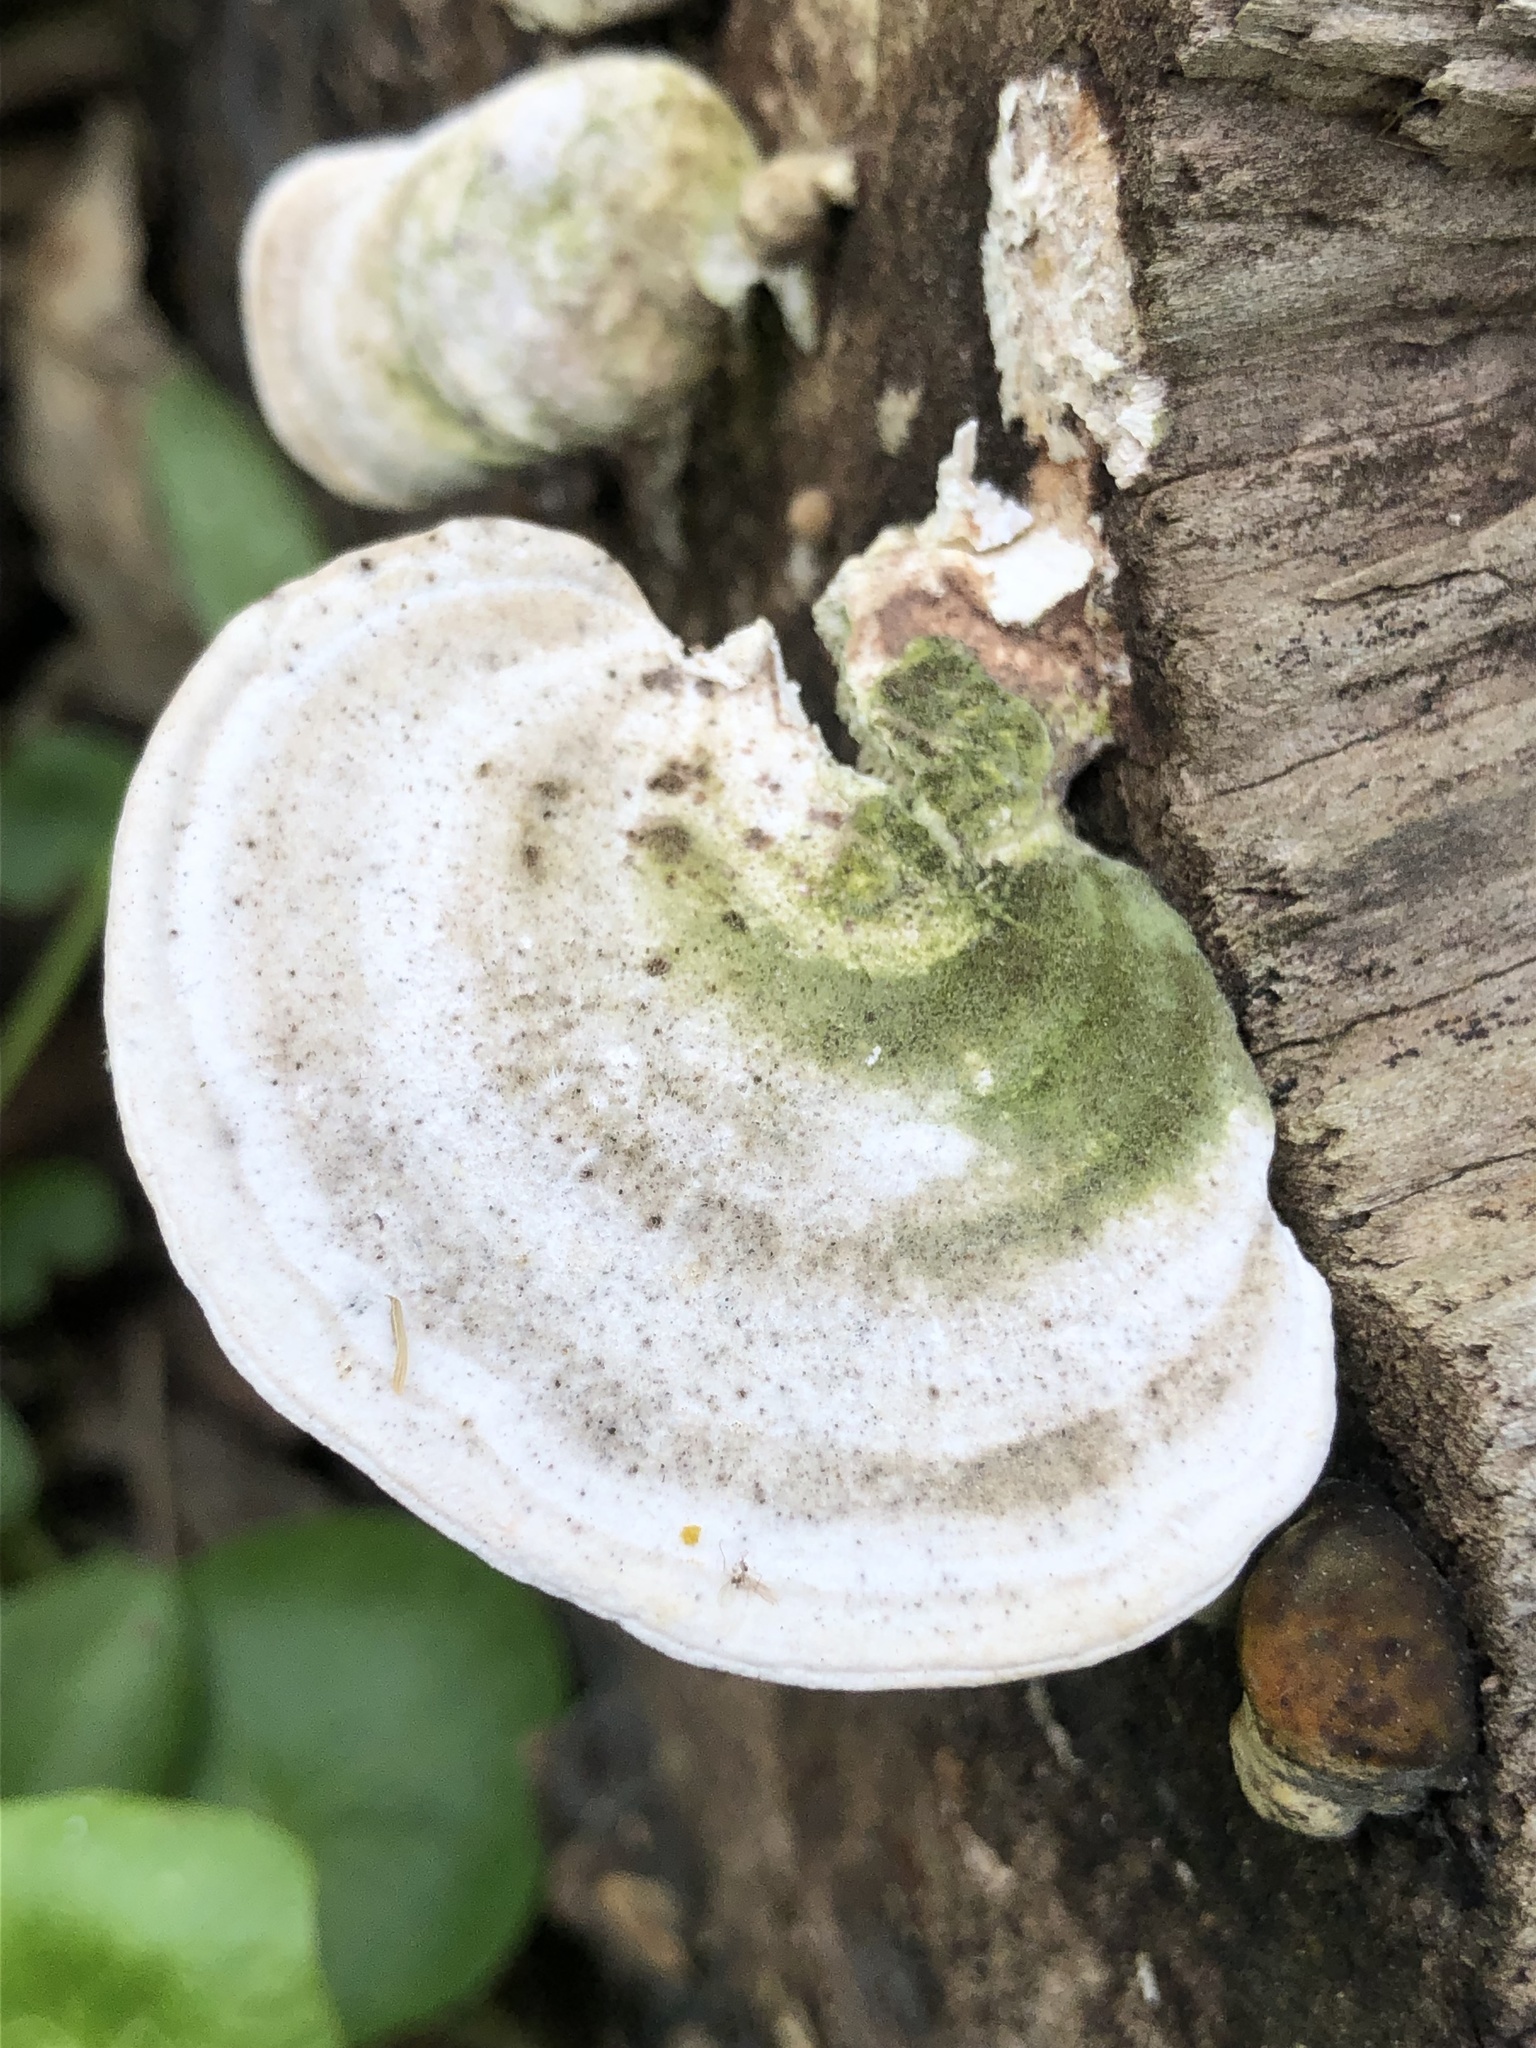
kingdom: Fungi
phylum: Basidiomycota
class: Agaricomycetes
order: Polyporales
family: Polyporaceae
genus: Trametes
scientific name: Trametes gibbosa
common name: Lumpy bracket
